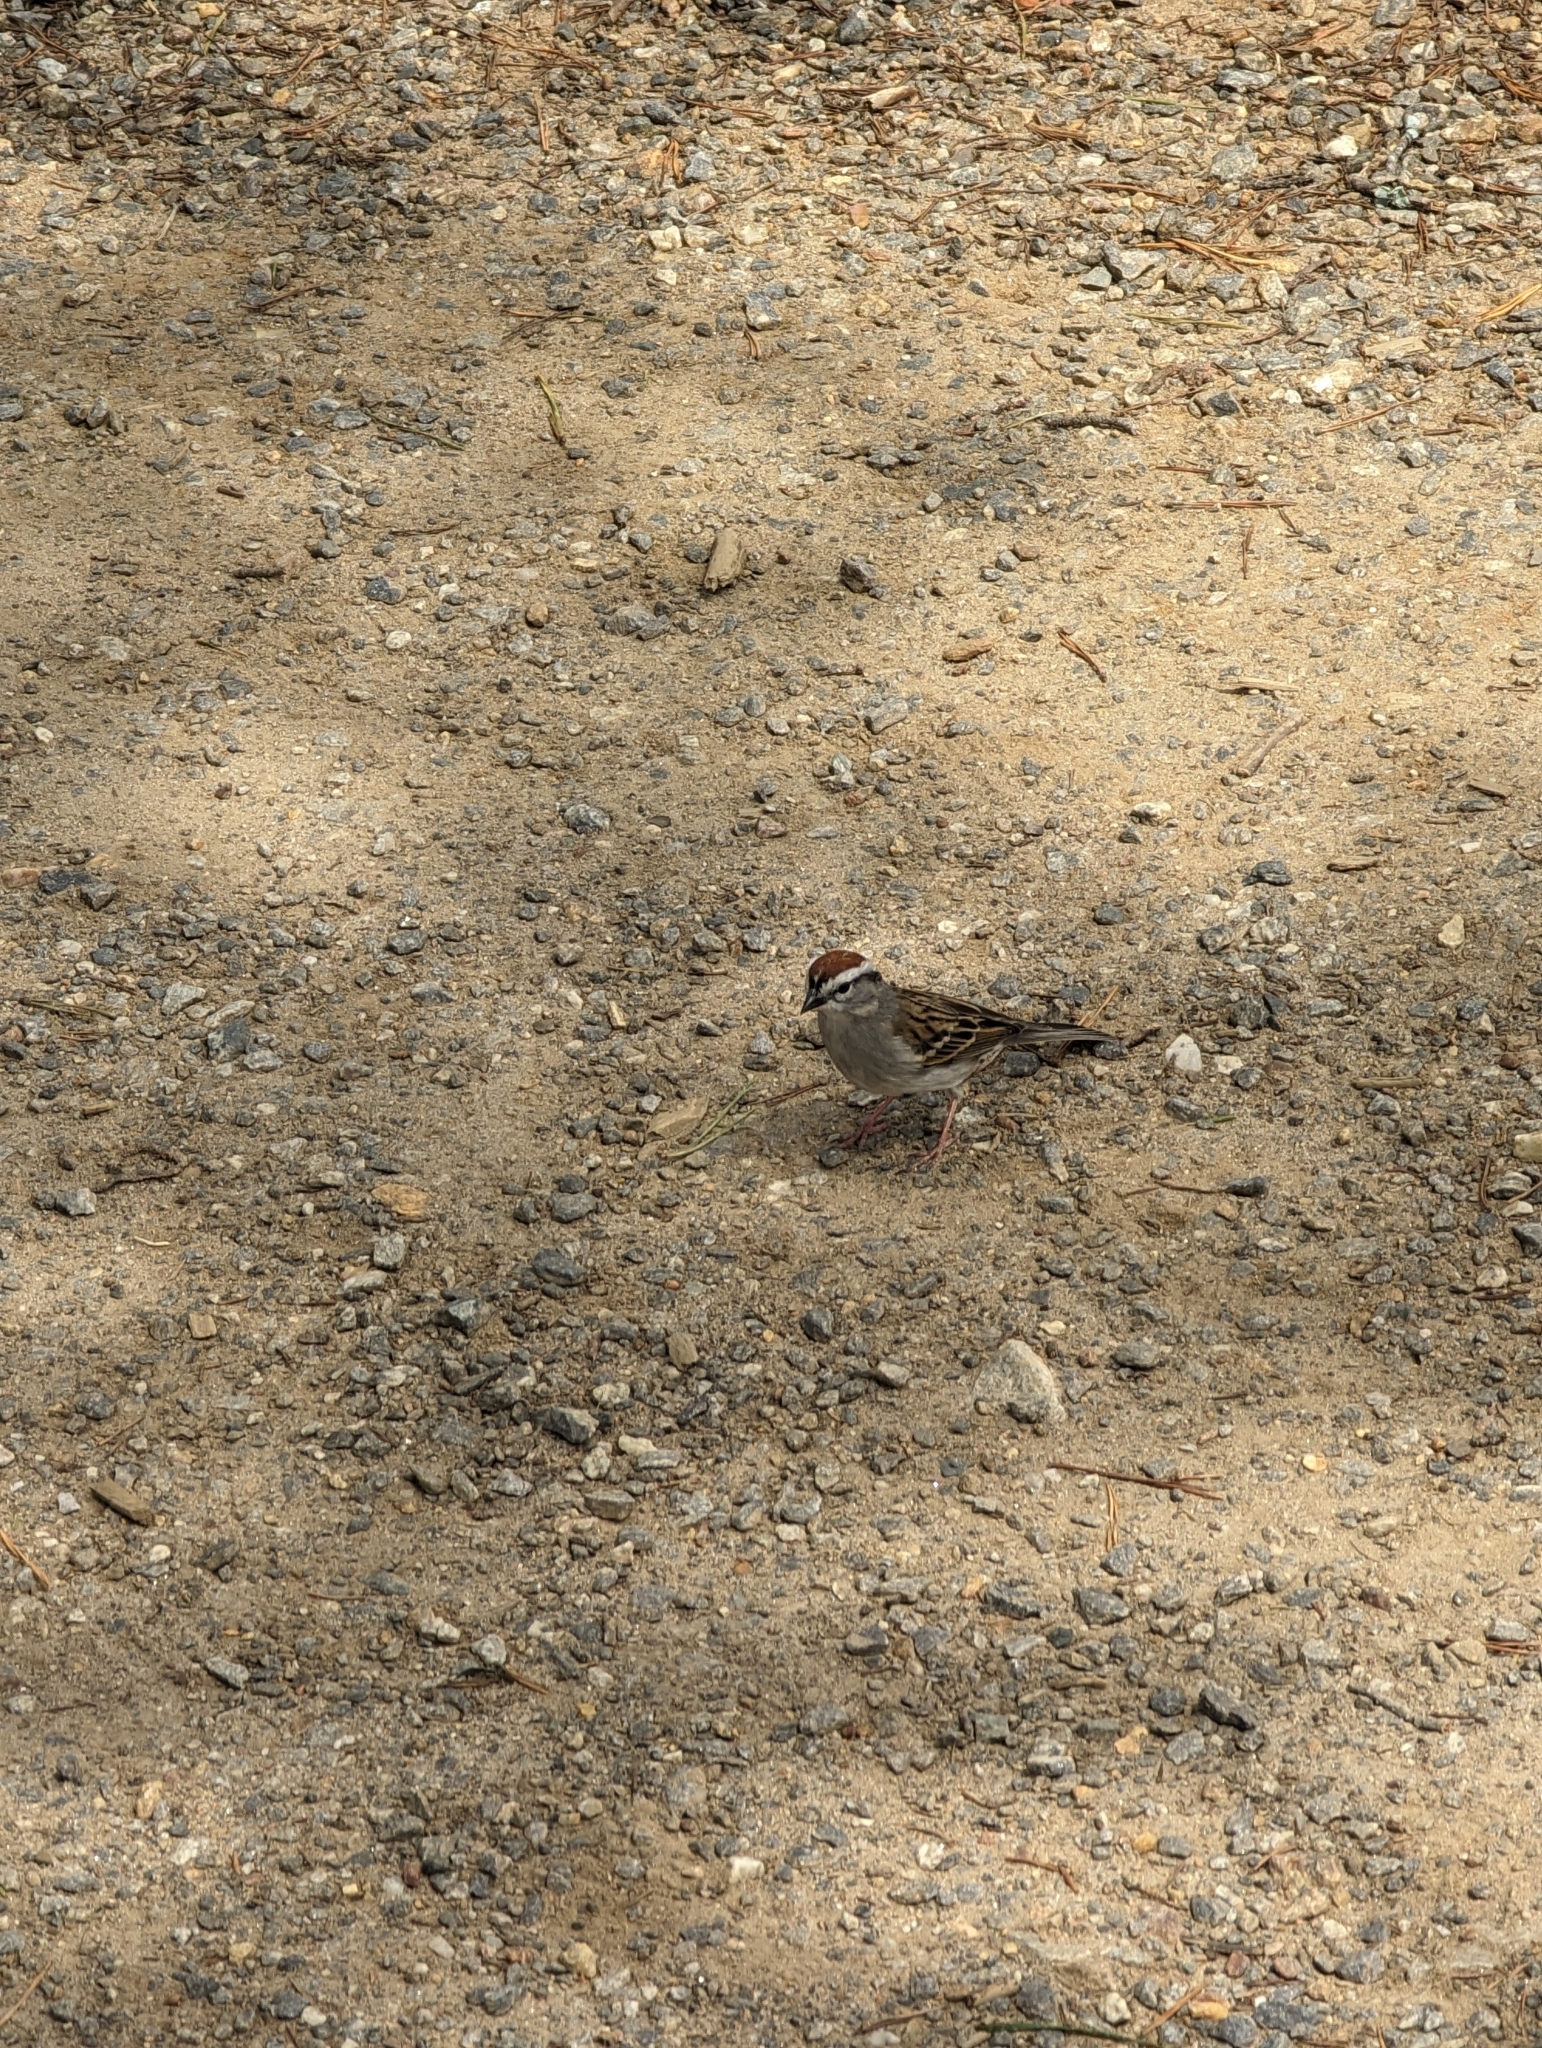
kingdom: Animalia
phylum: Chordata
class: Aves
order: Passeriformes
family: Passerellidae
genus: Spizella
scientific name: Spizella passerina
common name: Chipping sparrow
